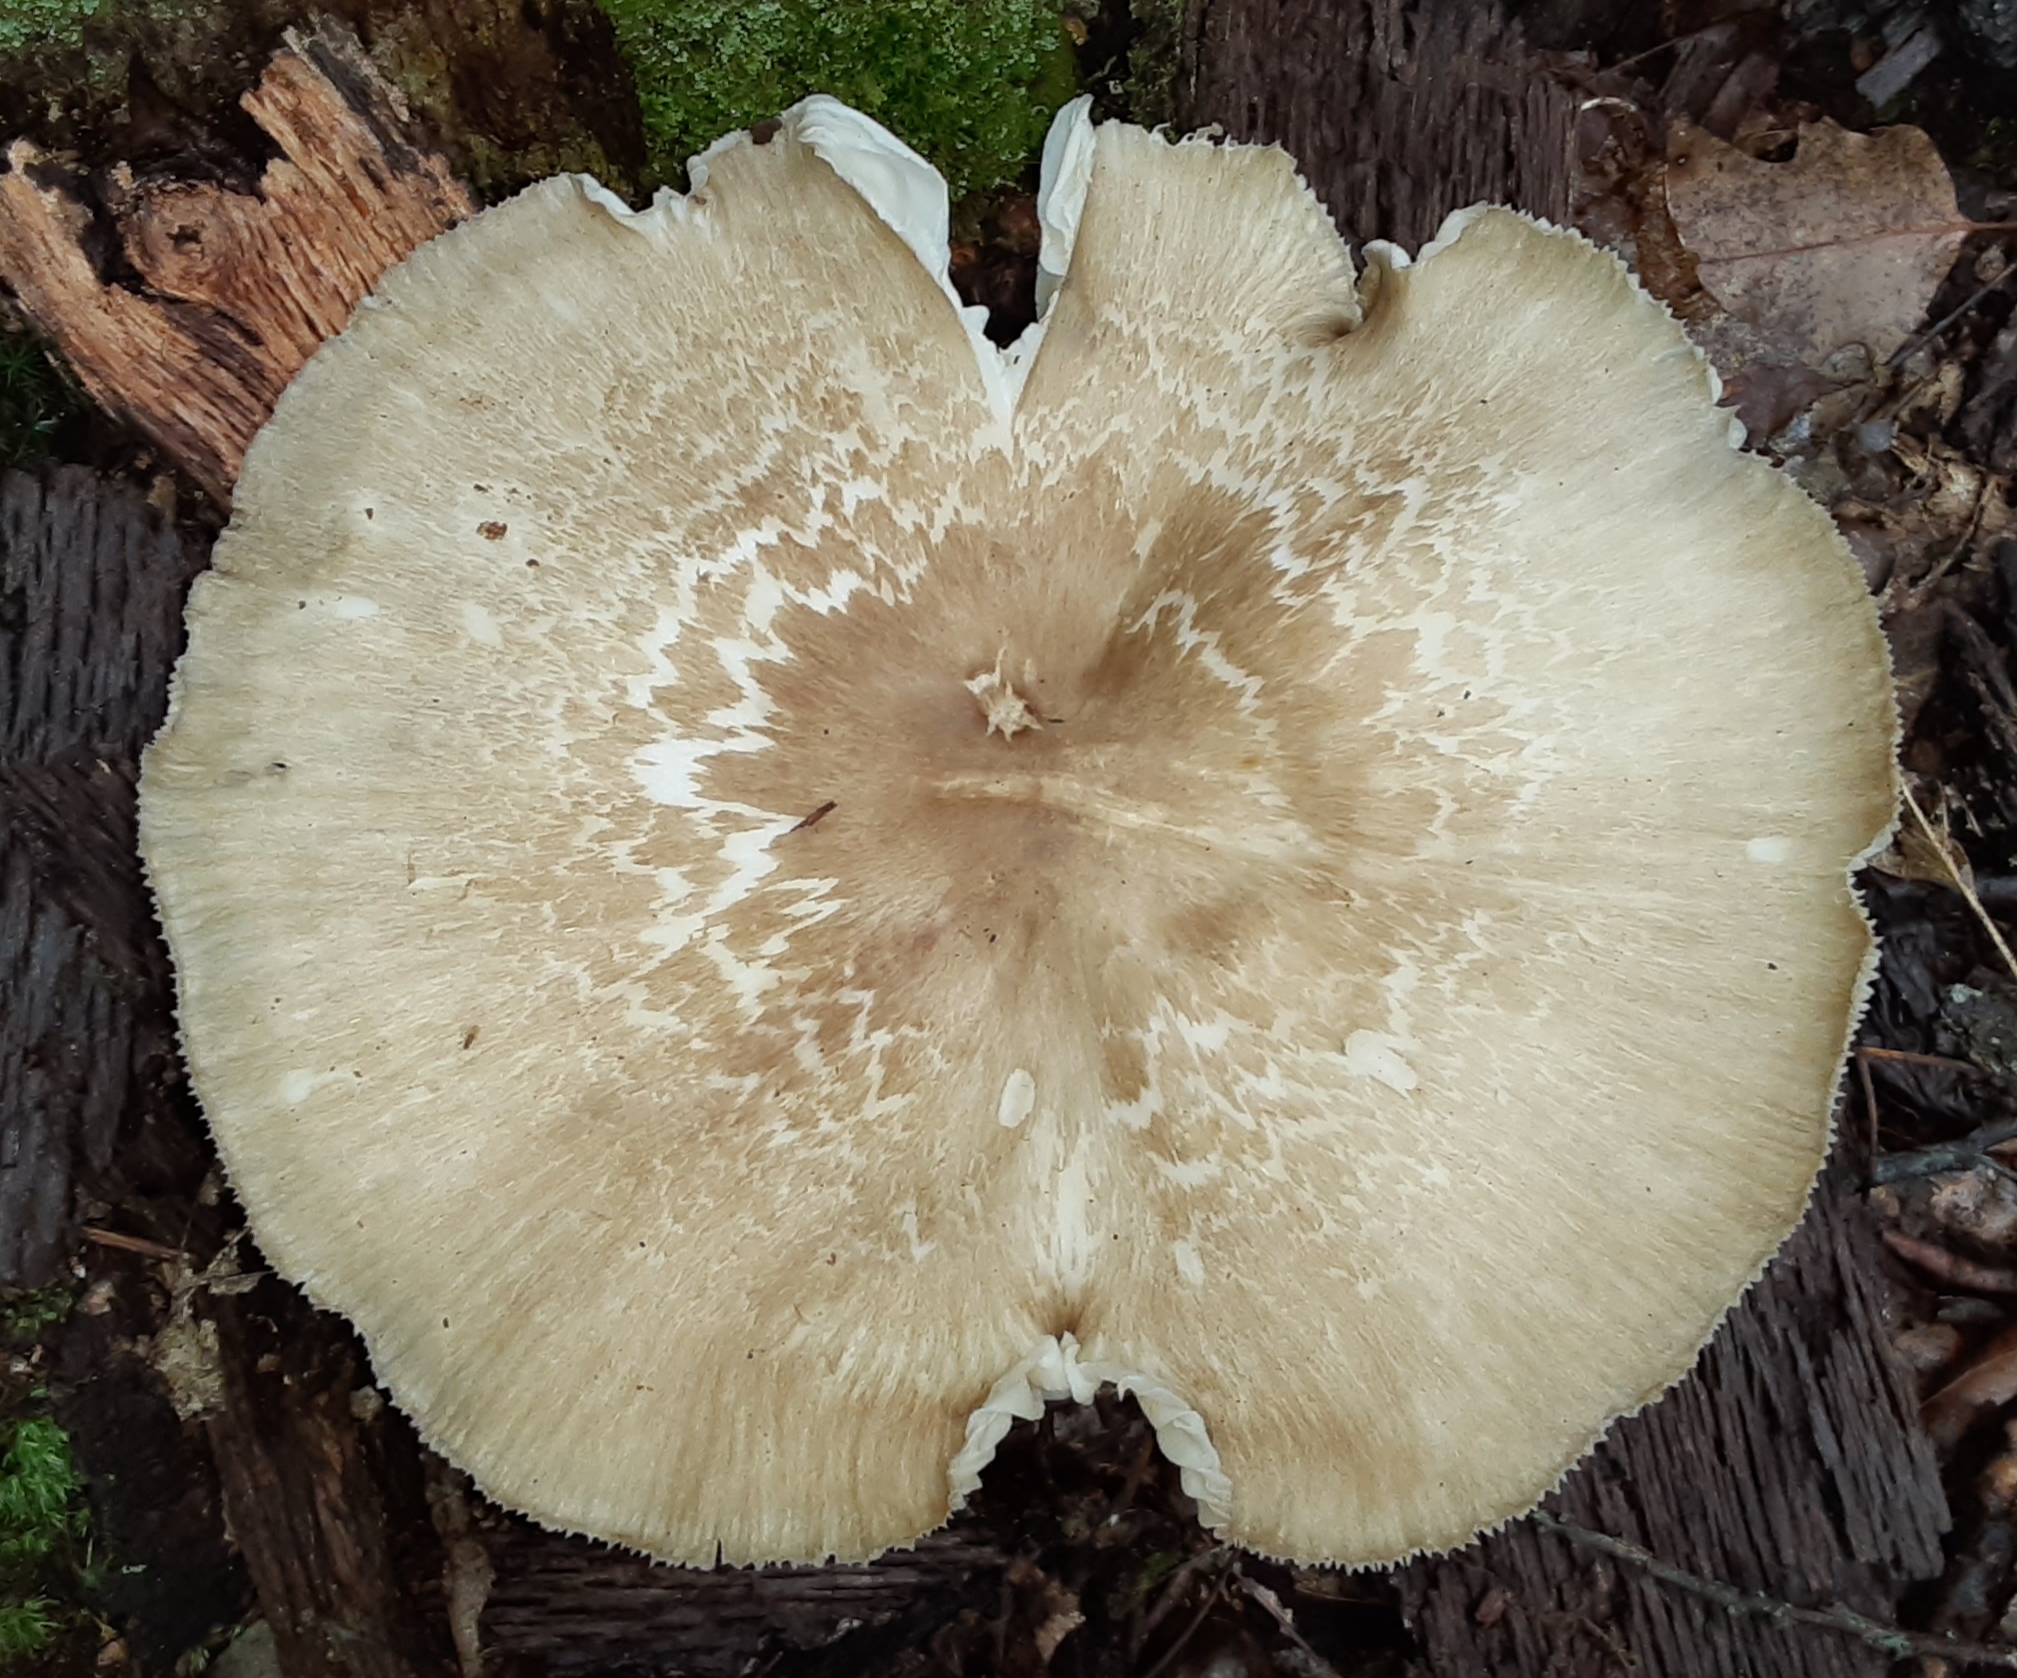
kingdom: Fungi
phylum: Basidiomycota
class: Agaricomycetes
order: Agaricales
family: Tricholomataceae
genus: Megacollybia
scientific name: Megacollybia rodmanii
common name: Eastern american platterful mushroom
